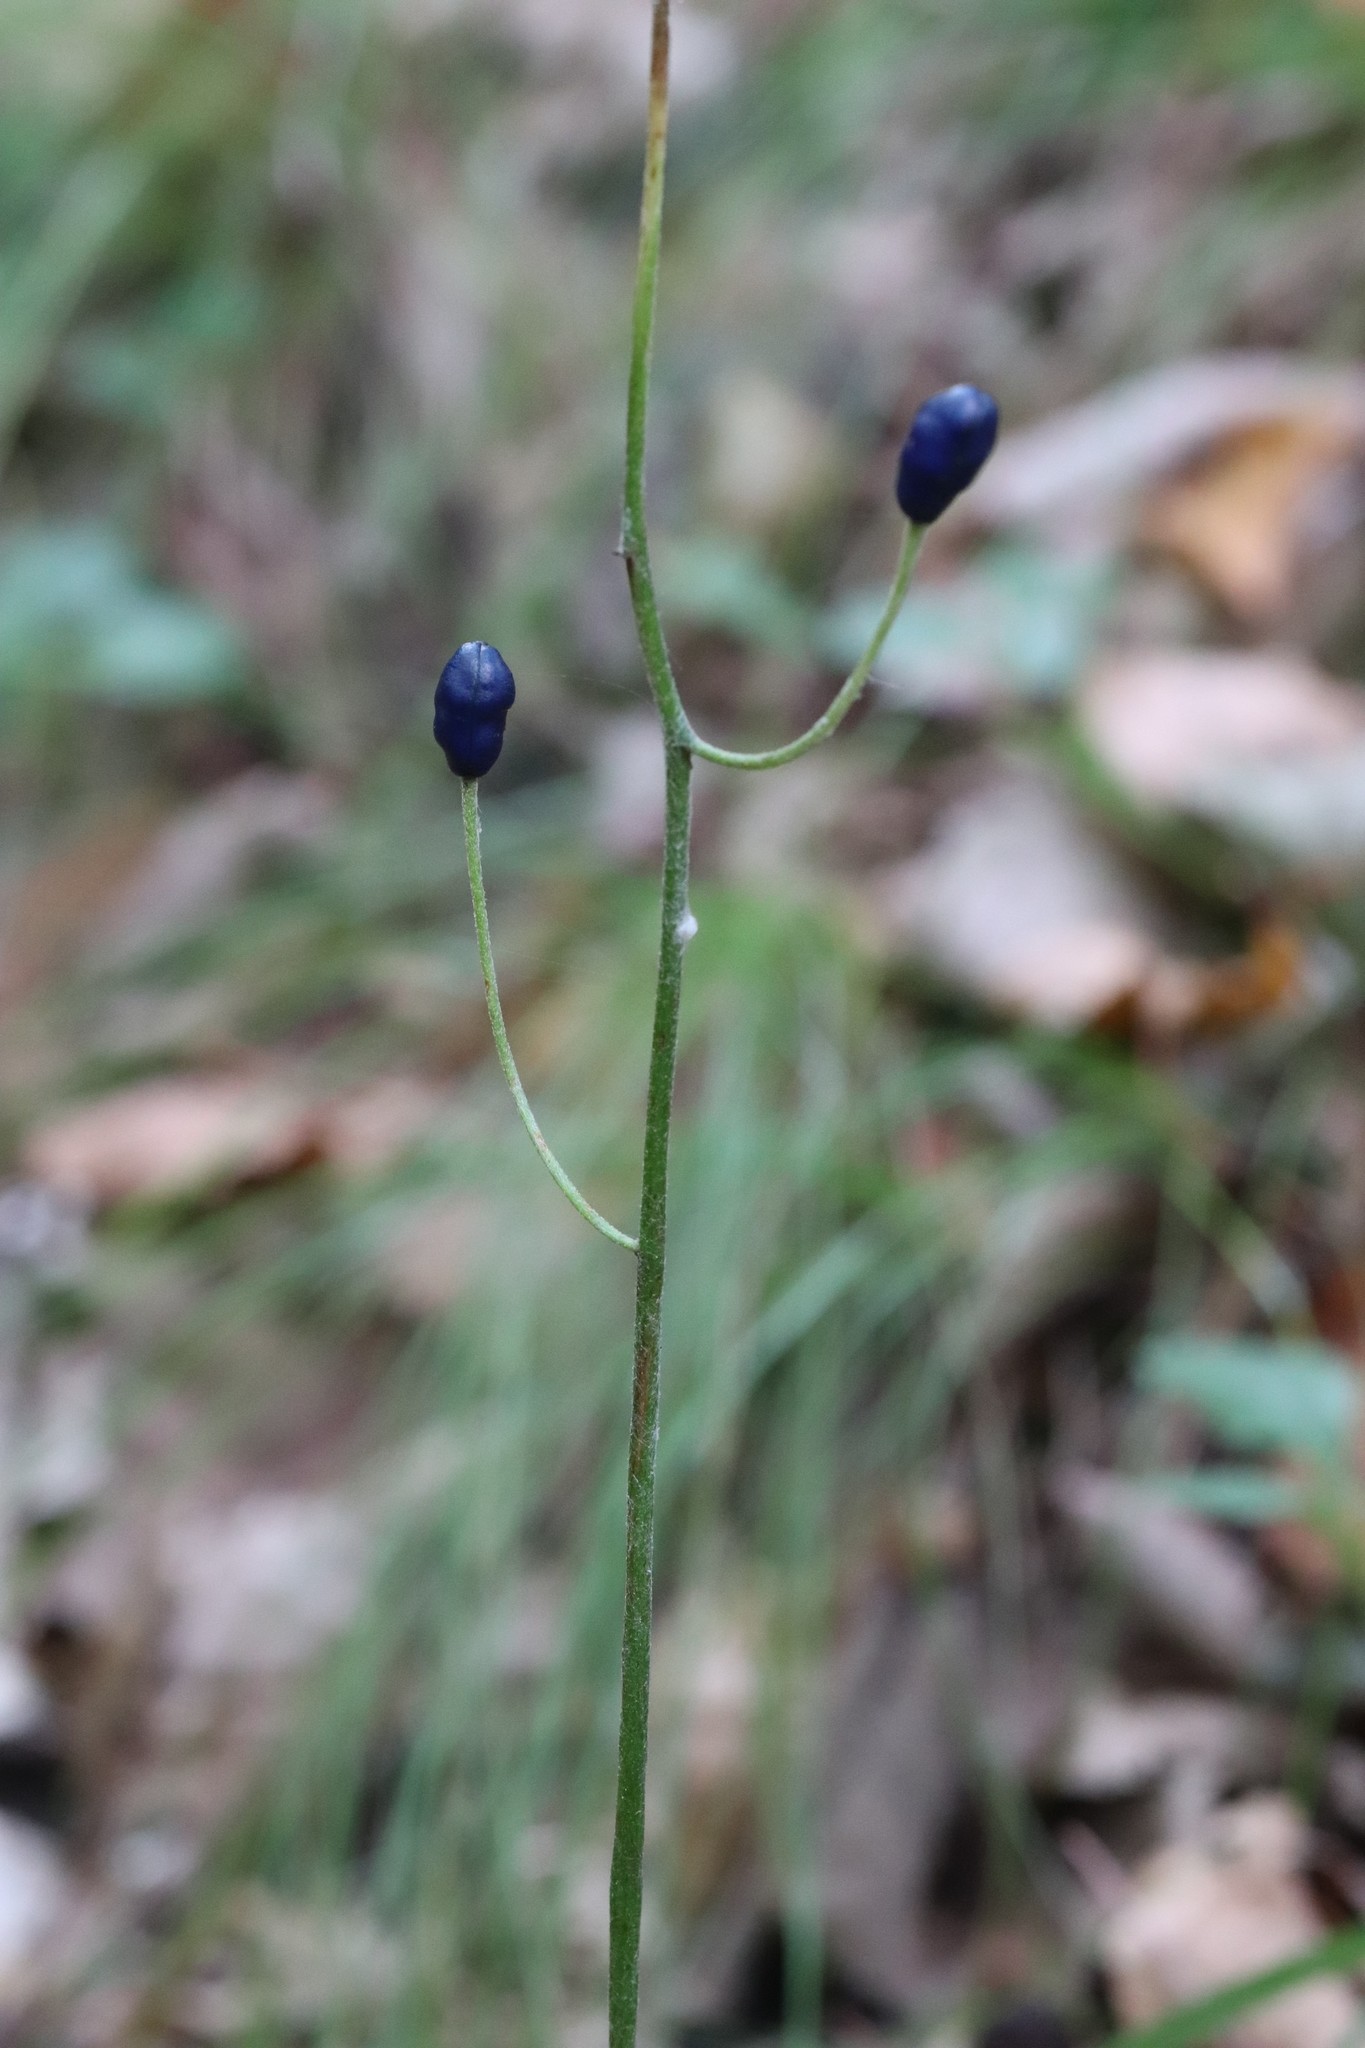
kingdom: Plantae
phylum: Tracheophyta
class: Liliopsida
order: Liliales
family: Liliaceae
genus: Clintonia
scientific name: Clintonia udensis
